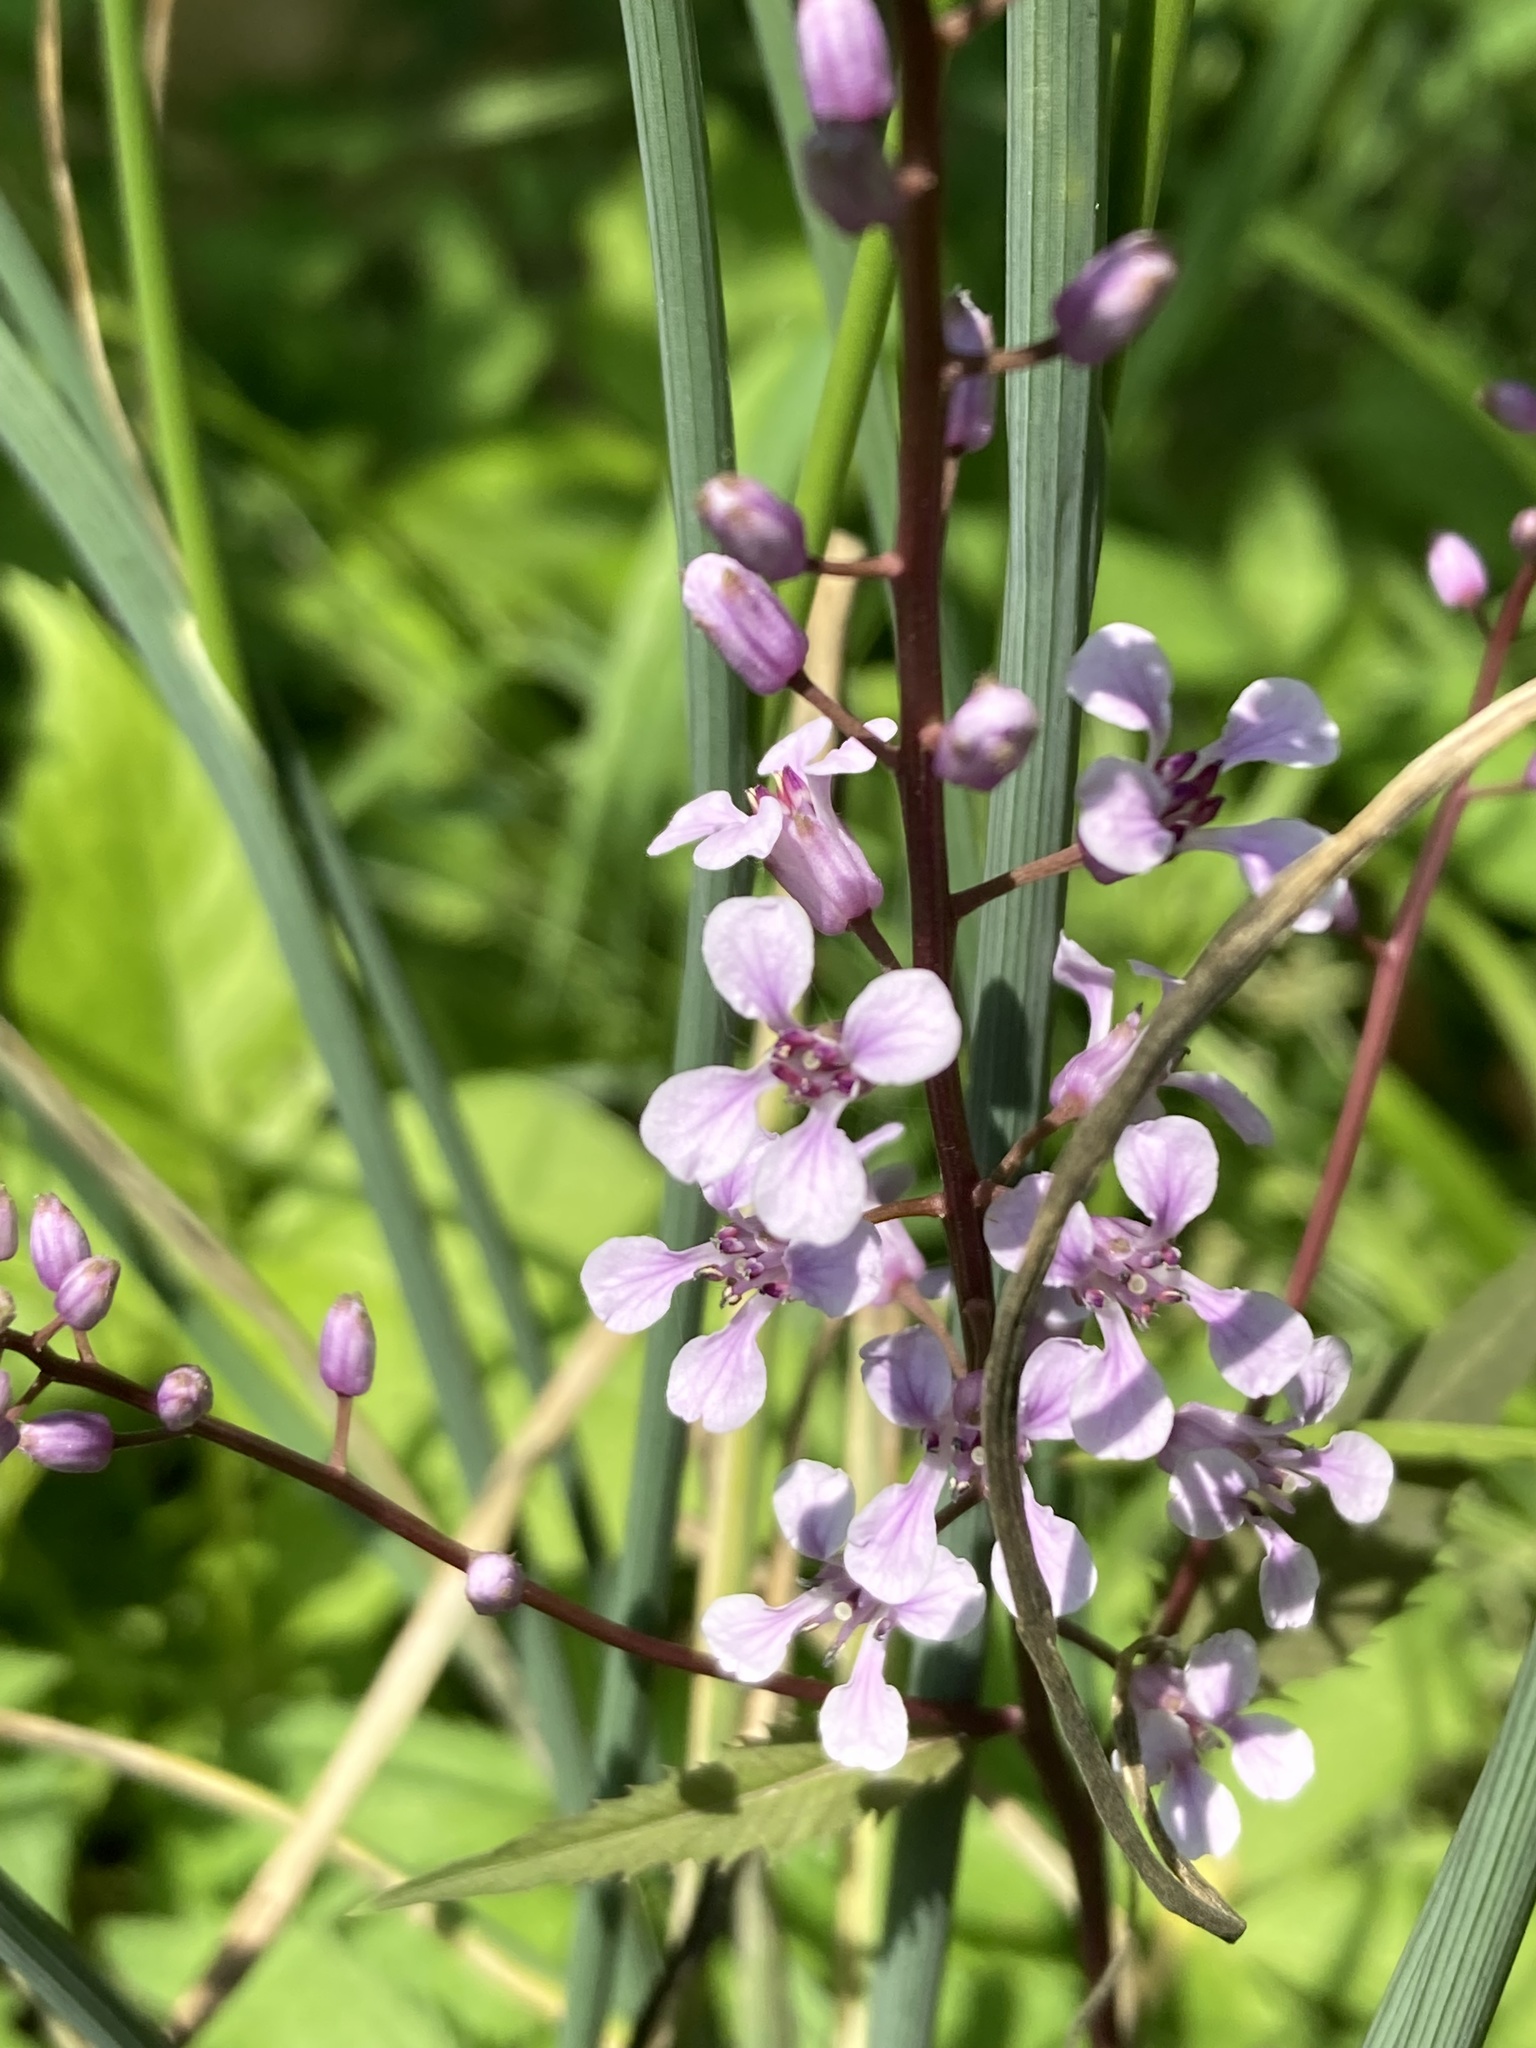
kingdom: Plantae
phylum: Tracheophyta
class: Magnoliopsida
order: Brassicales
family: Brassicaceae
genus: Iodanthus
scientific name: Iodanthus pinnatifidus
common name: Violet rocket
